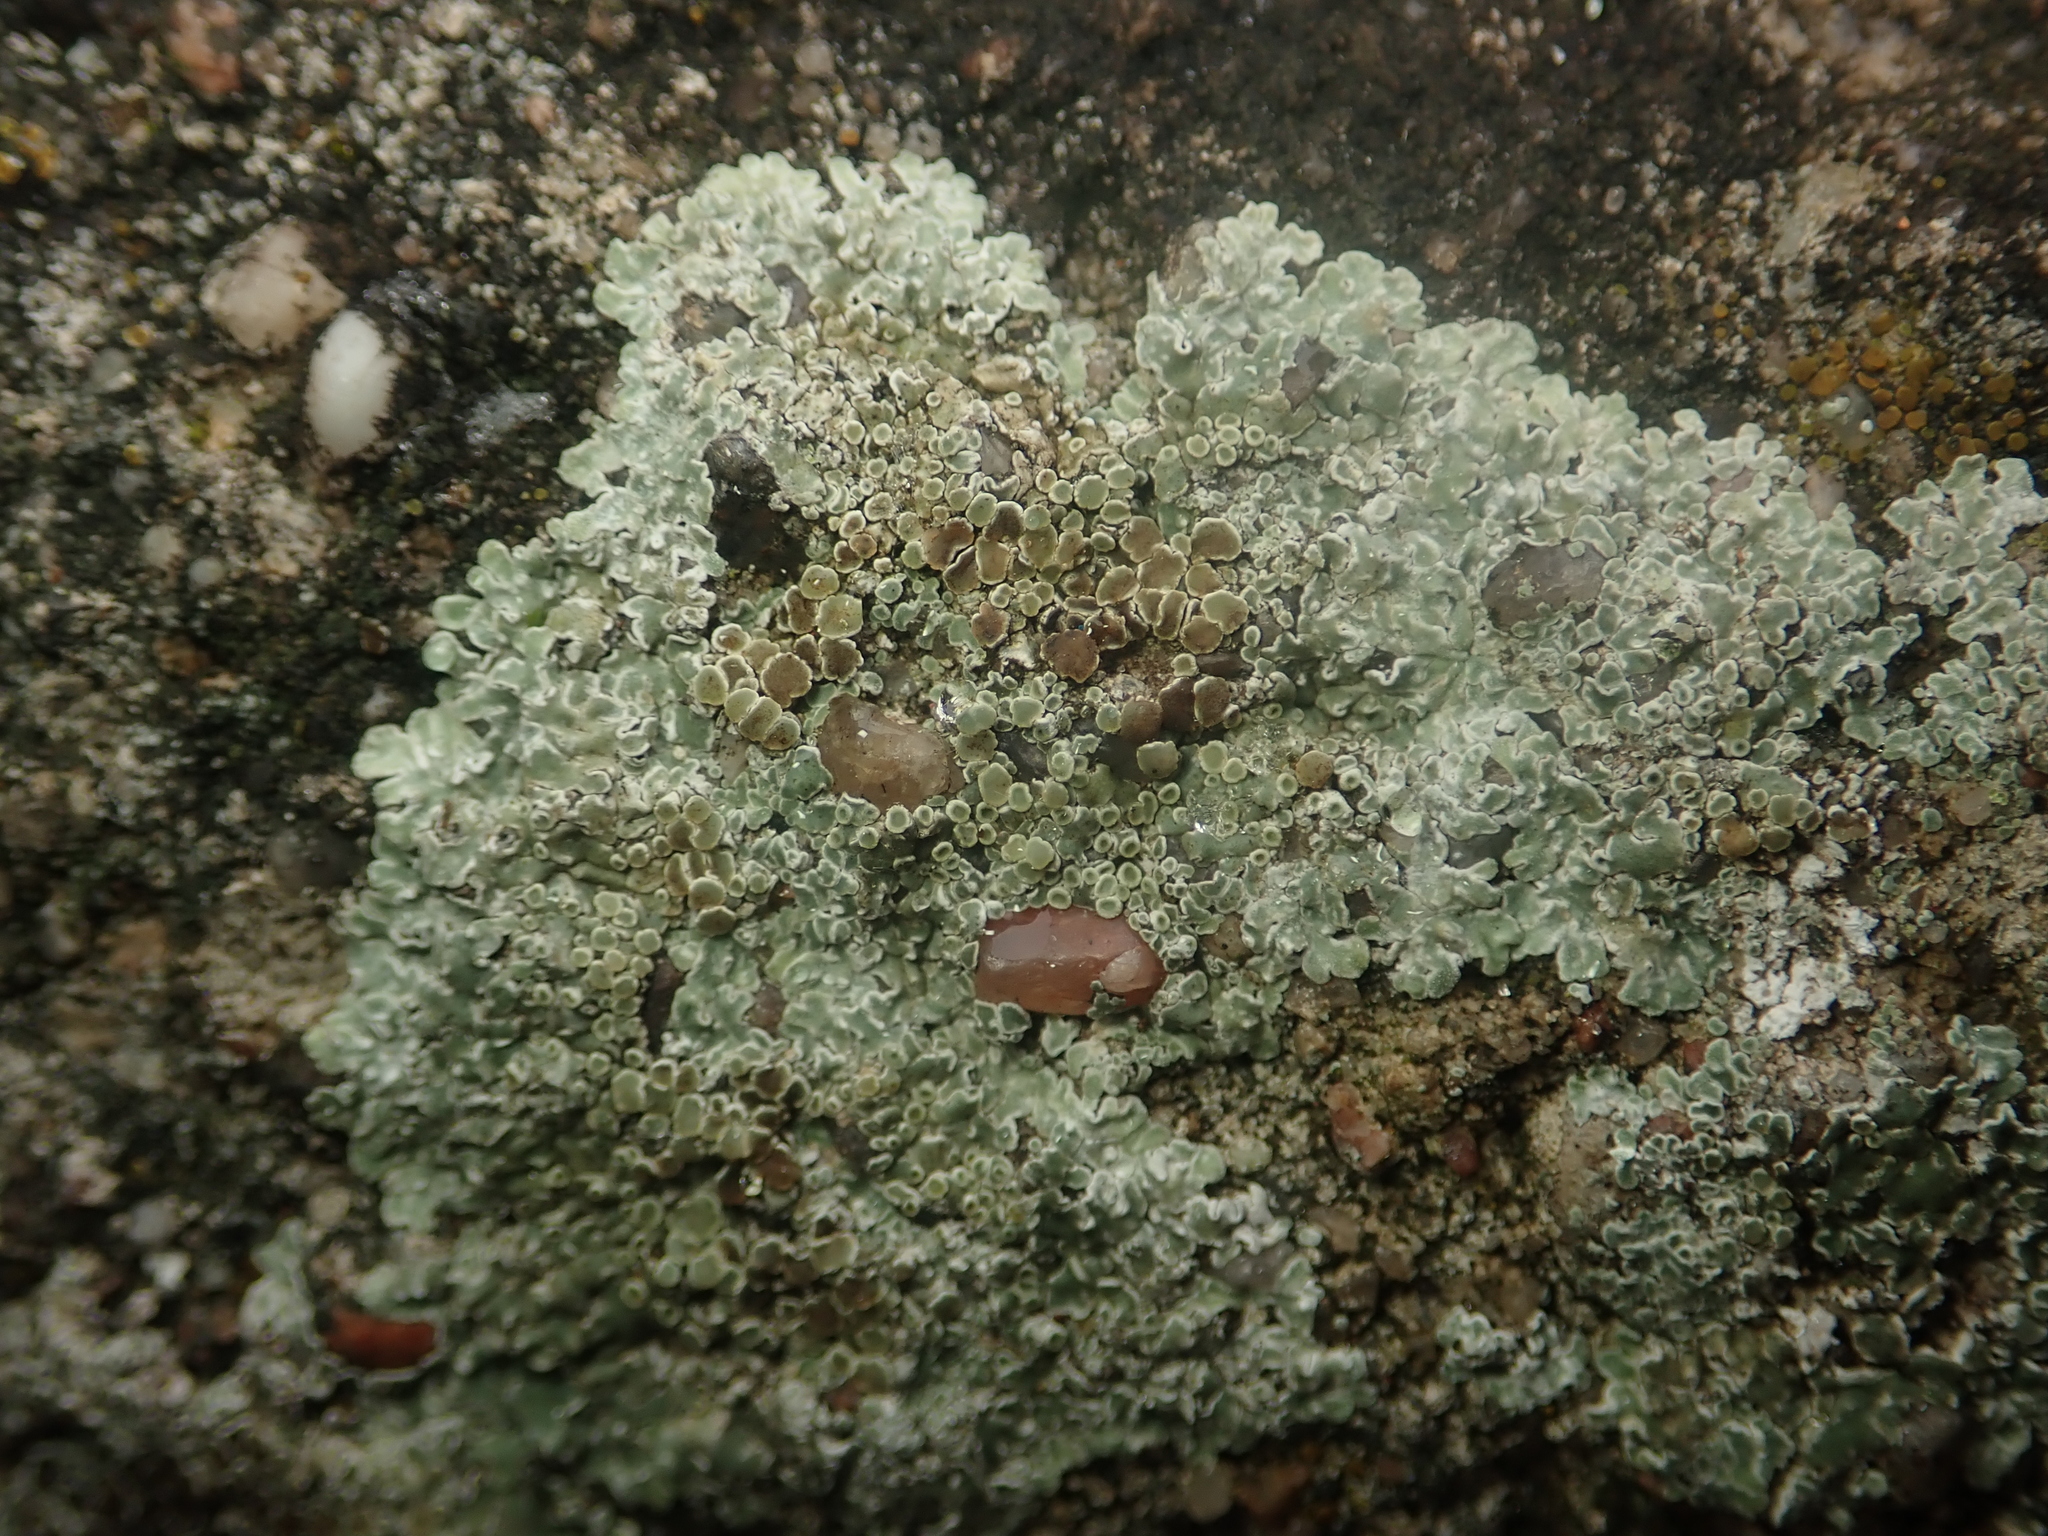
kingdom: Fungi
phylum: Ascomycota
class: Lecanoromycetes
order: Lecanorales
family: Lecanoraceae
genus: Protoparmeliopsis
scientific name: Protoparmeliopsis muralis
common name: Stonewall rim lichen
